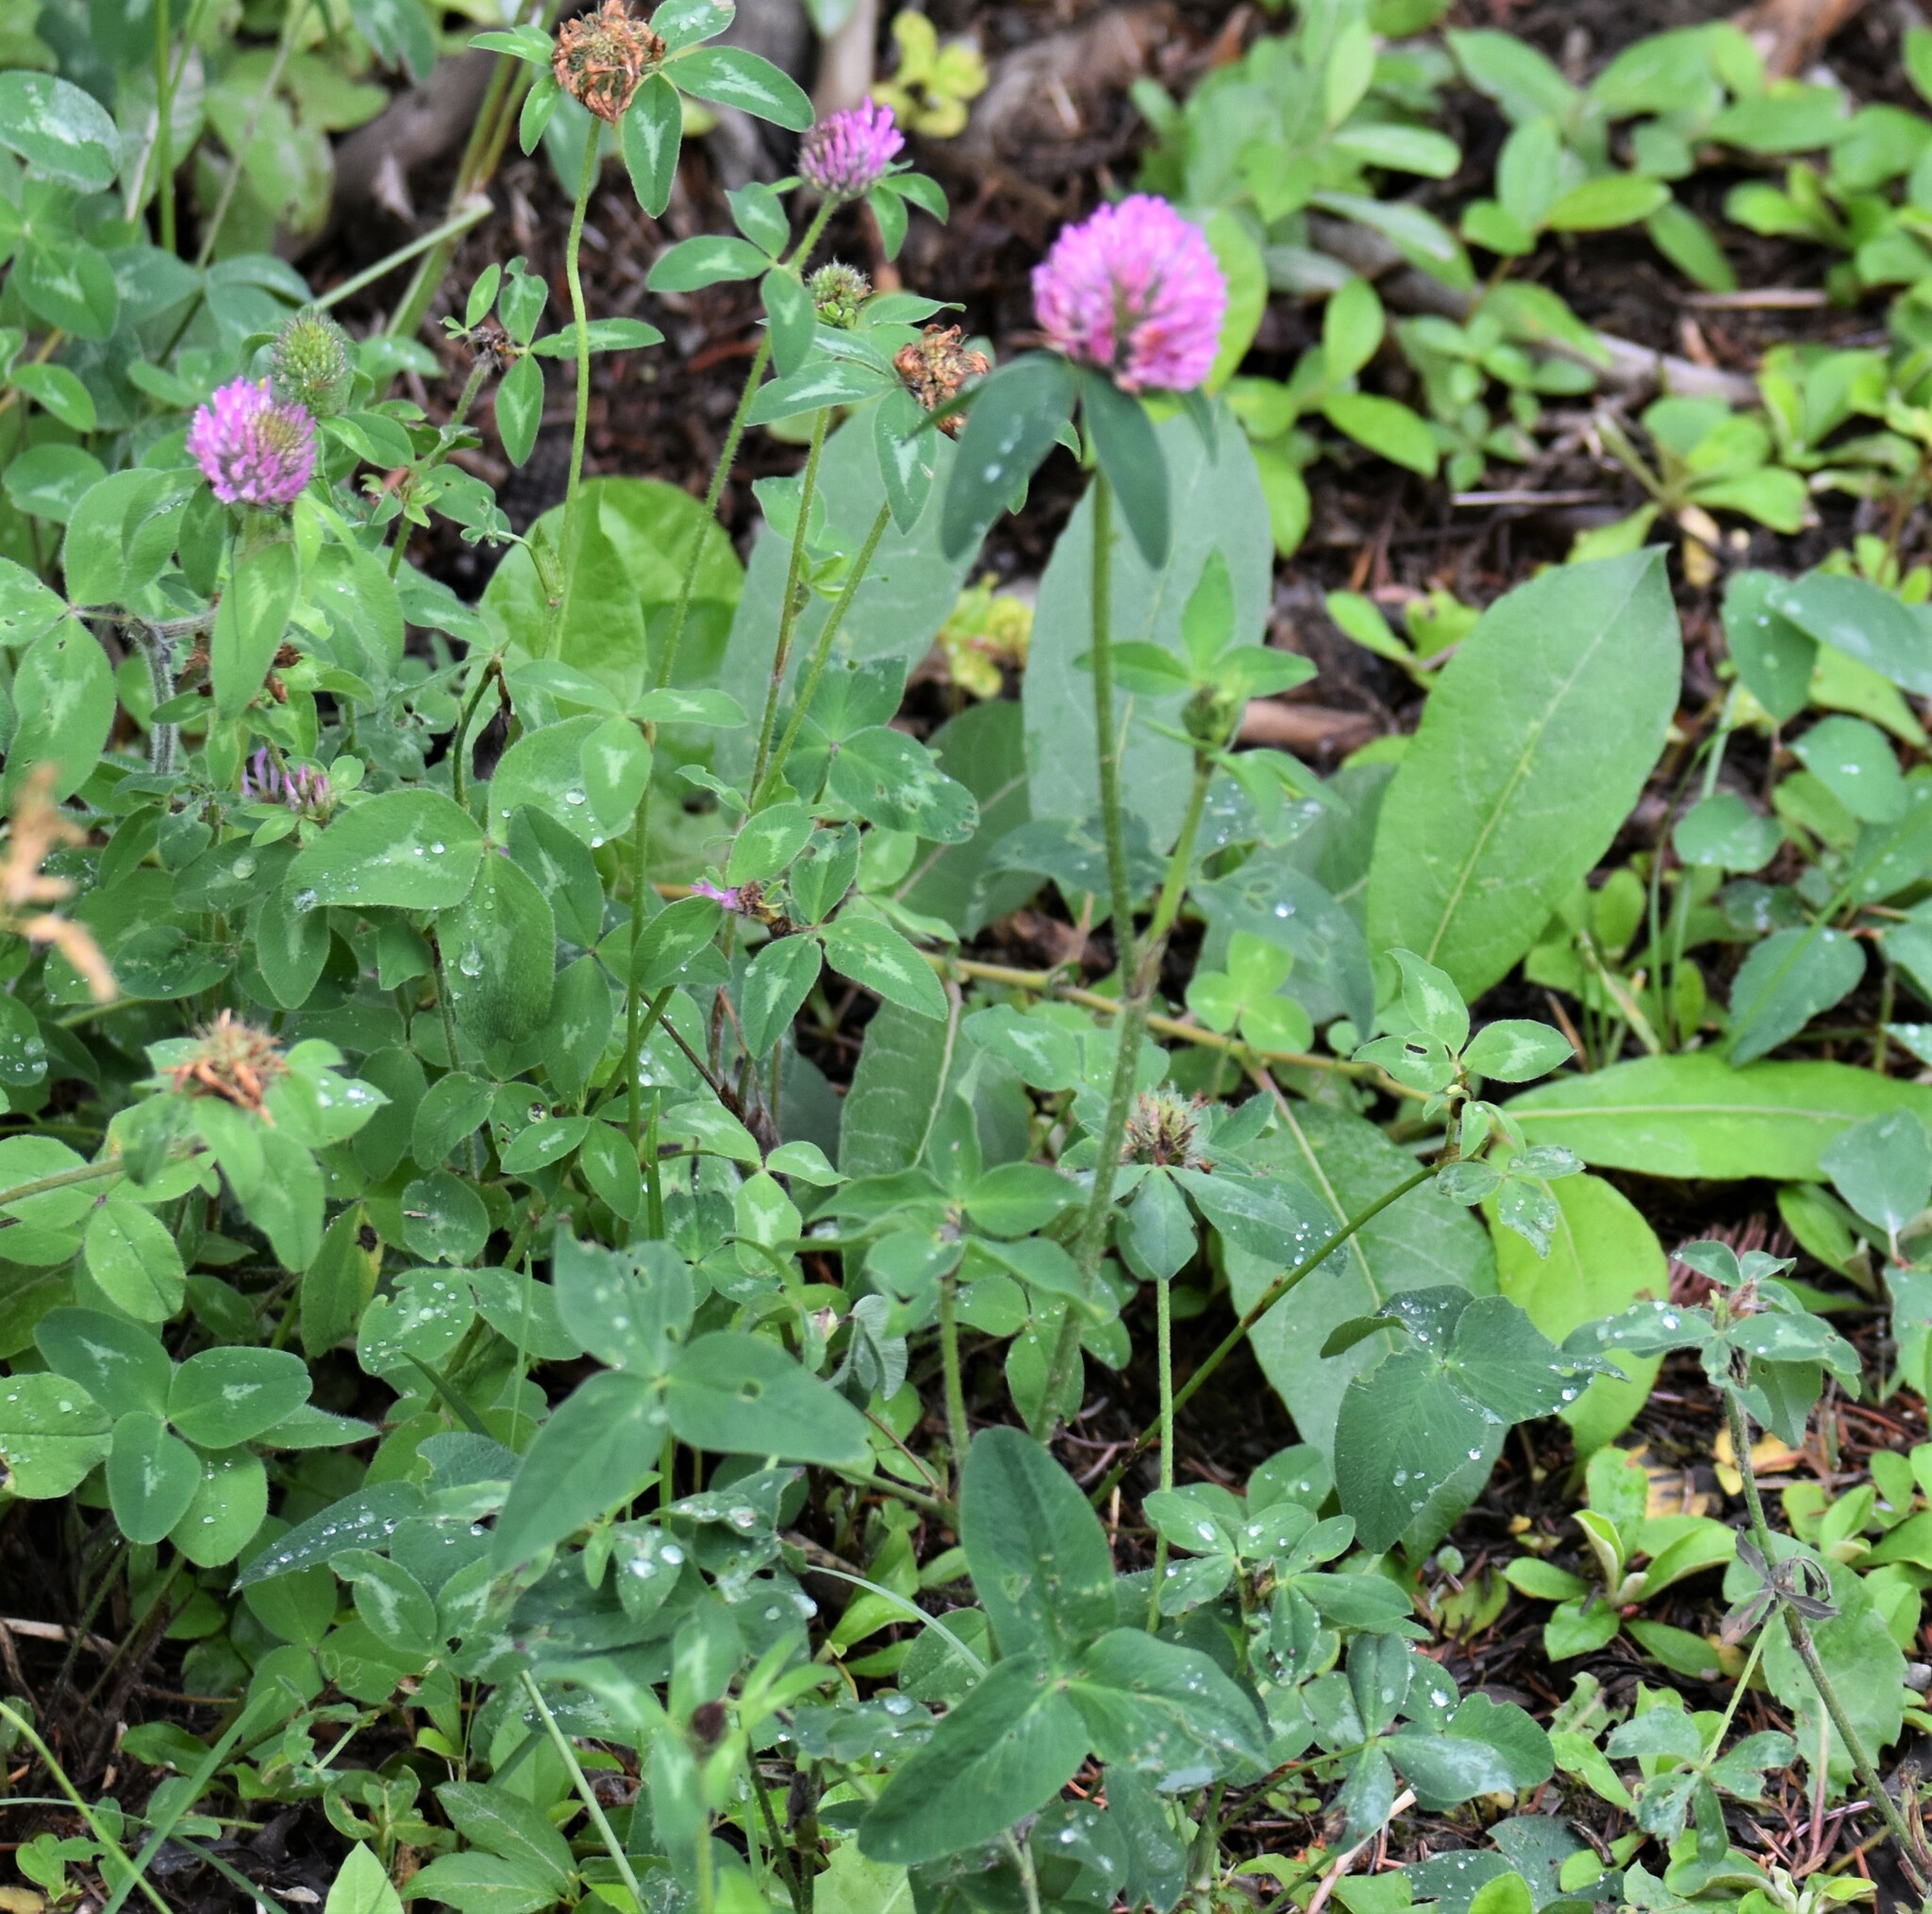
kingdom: Plantae
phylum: Tracheophyta
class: Magnoliopsida
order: Fabales
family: Fabaceae
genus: Trifolium
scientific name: Trifolium pratense
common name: Red clover
